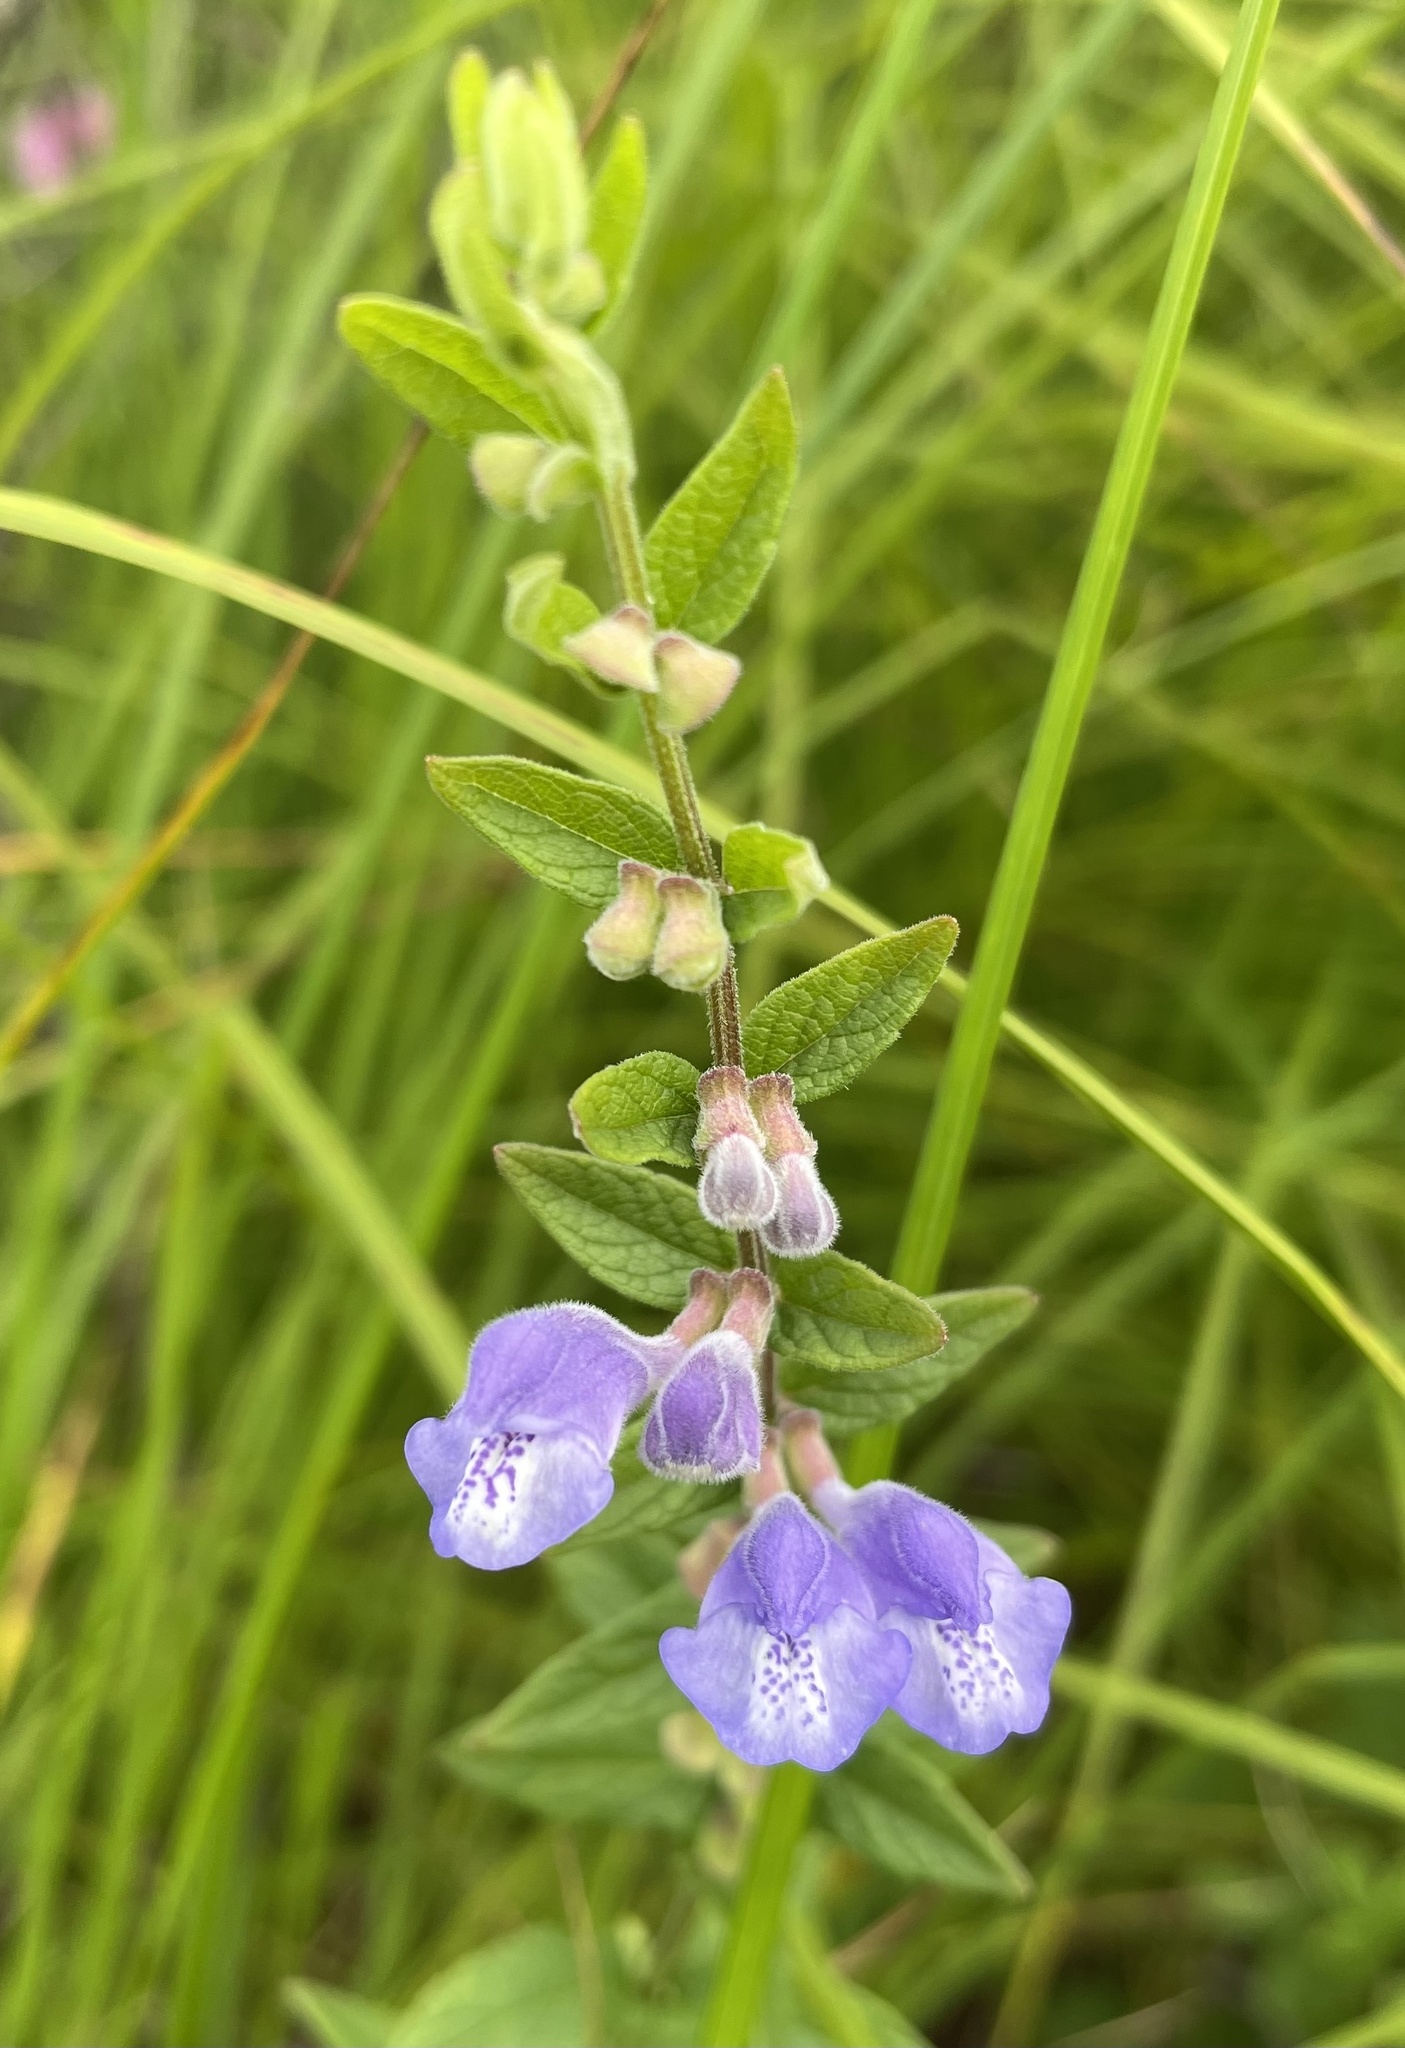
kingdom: Plantae
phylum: Tracheophyta
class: Magnoliopsida
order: Lamiales
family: Lamiaceae
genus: Scutellaria
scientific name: Scutellaria galericulata
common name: Skullcap
